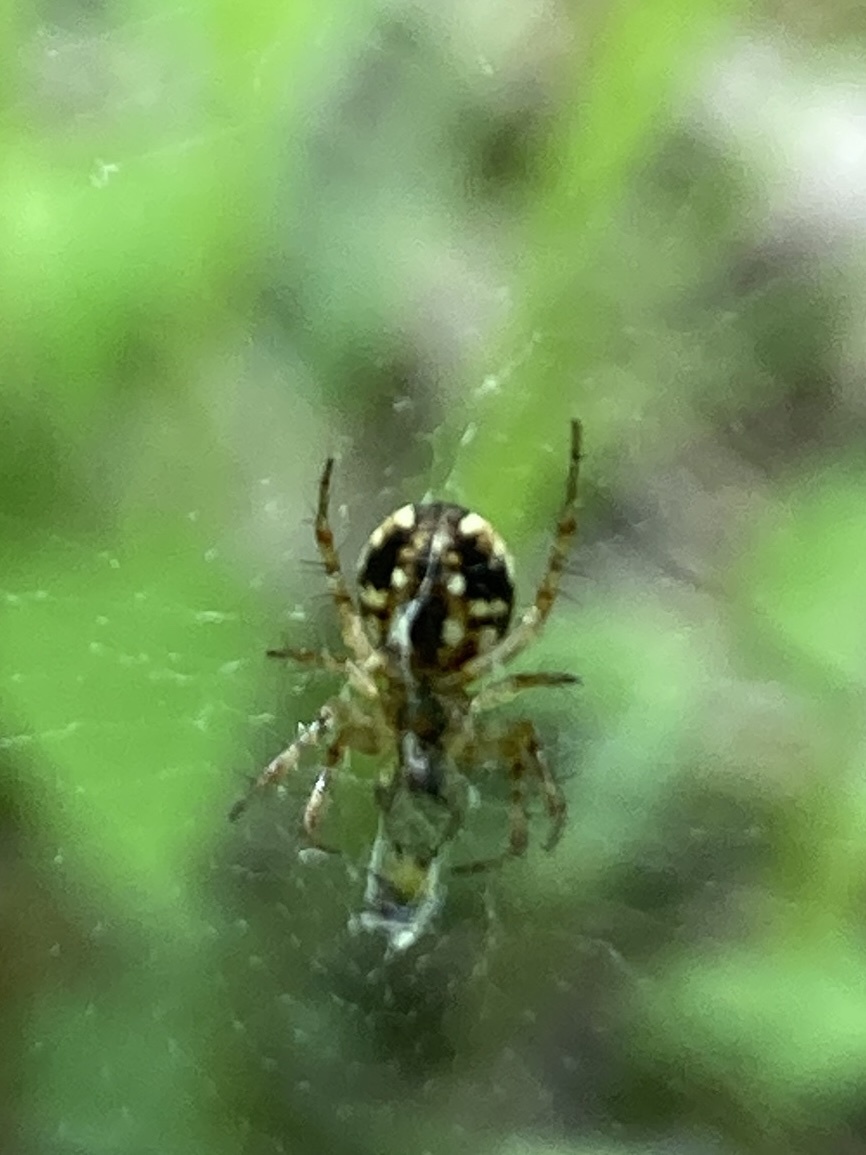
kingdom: Animalia
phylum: Arthropoda
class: Arachnida
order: Araneae
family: Araneidae
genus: Mangora
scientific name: Mangora placida
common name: Tuft-legged orbweaver
